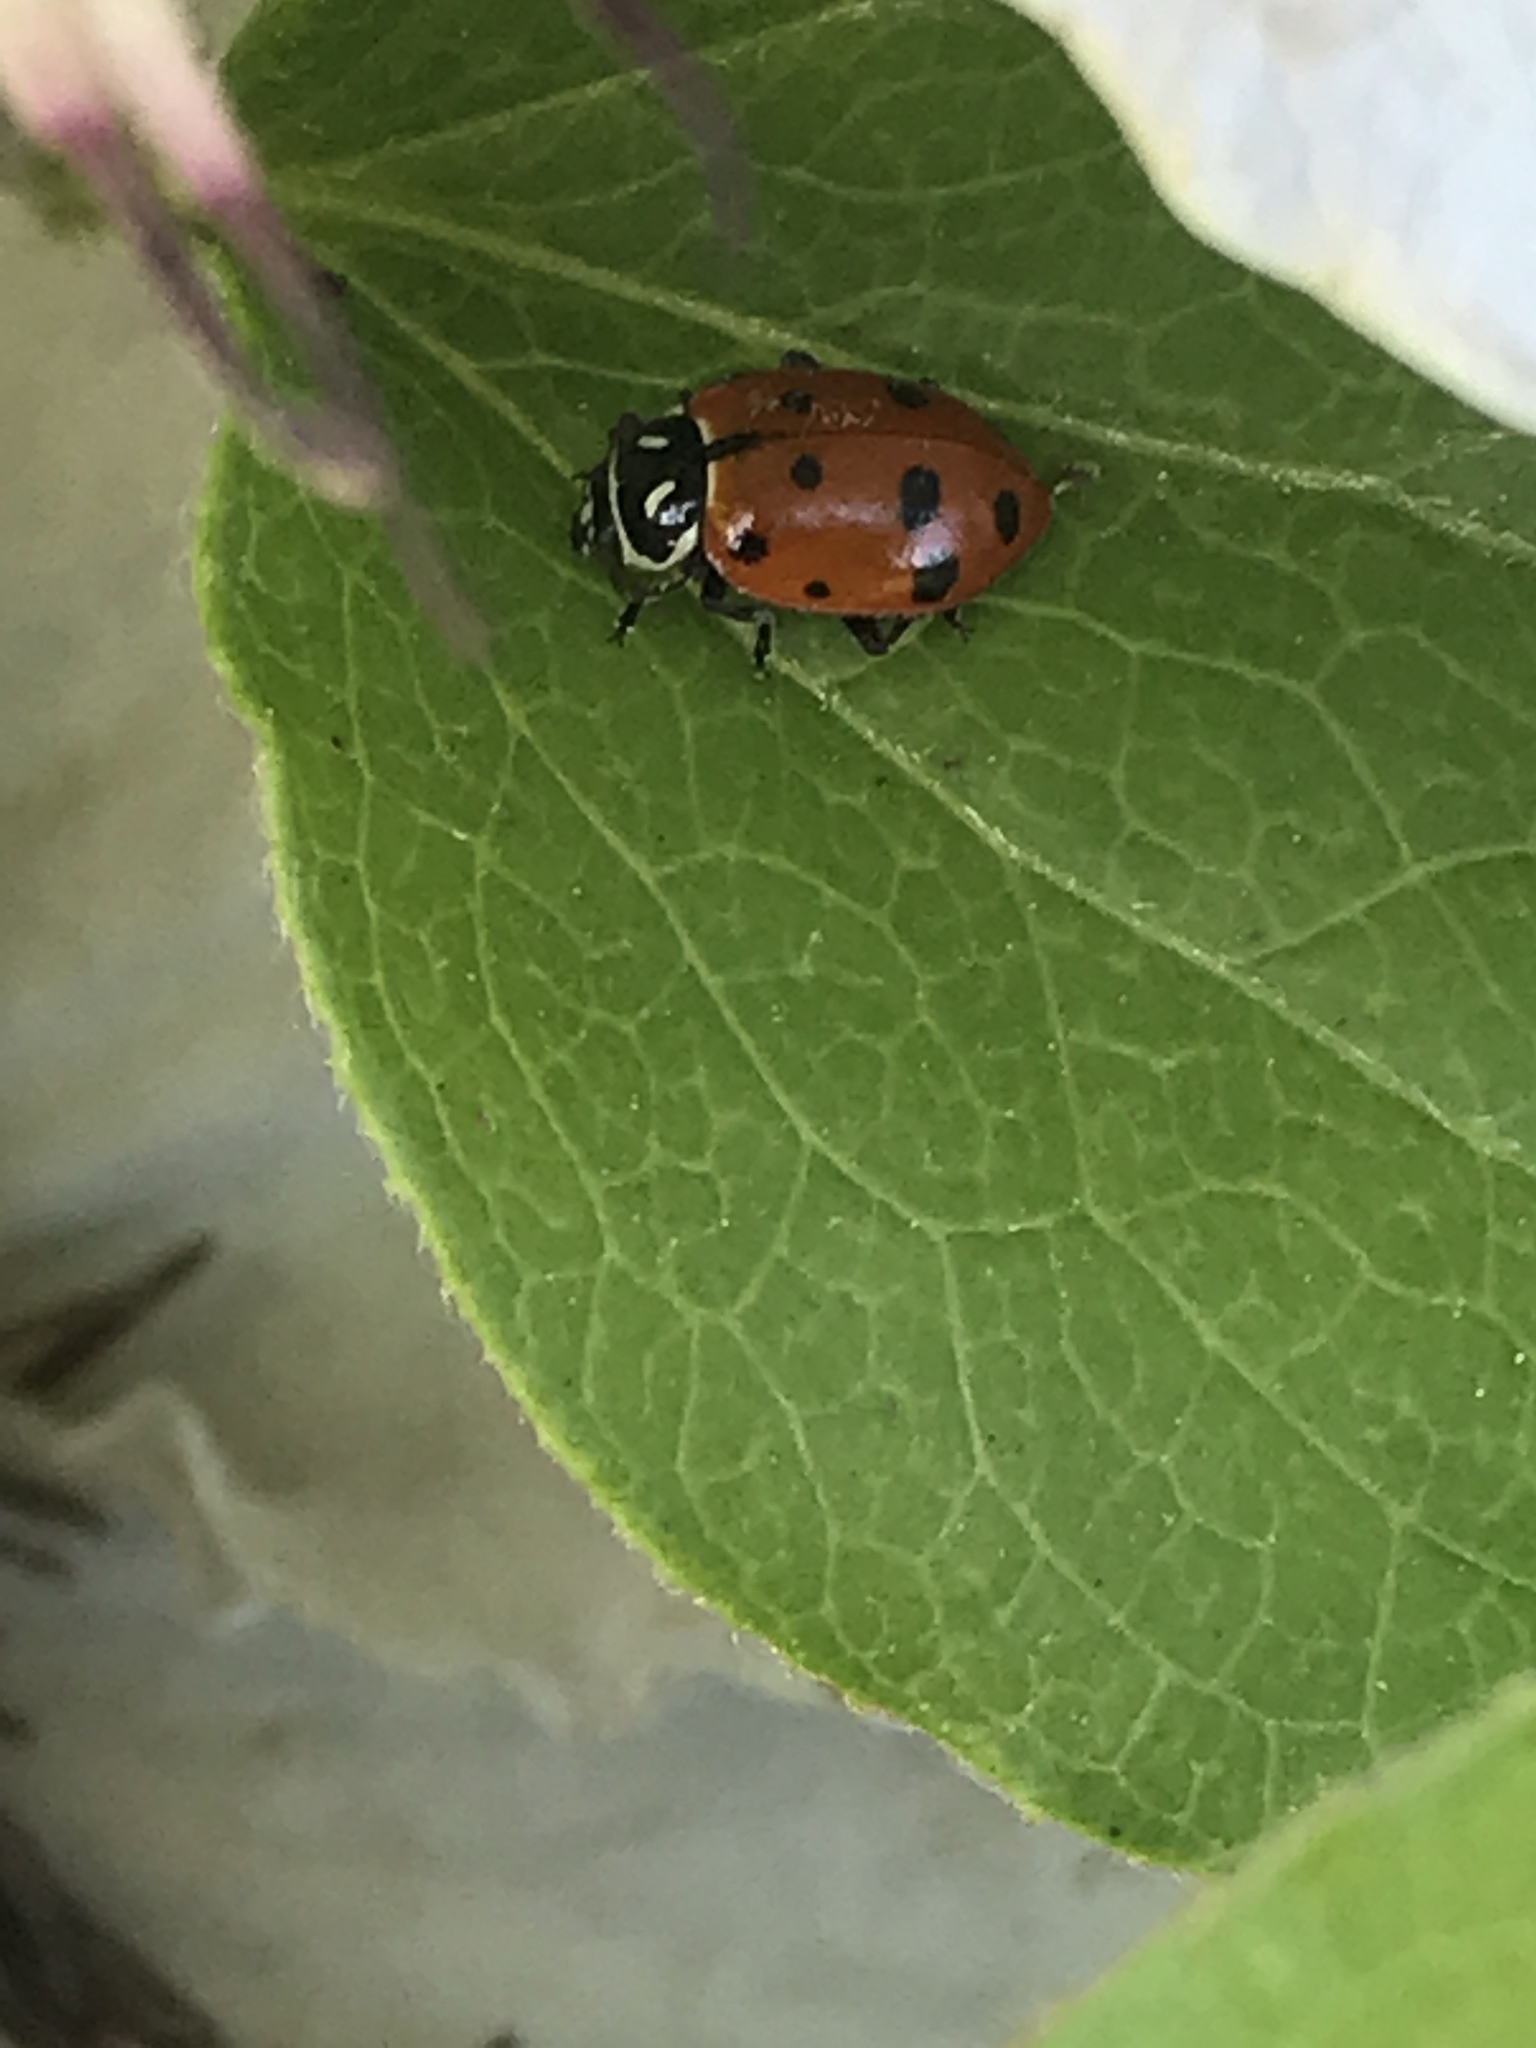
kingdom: Animalia
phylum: Arthropoda
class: Insecta
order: Coleoptera
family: Coccinellidae
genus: Hippodamia
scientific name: Hippodamia convergens
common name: Convergent lady beetle
